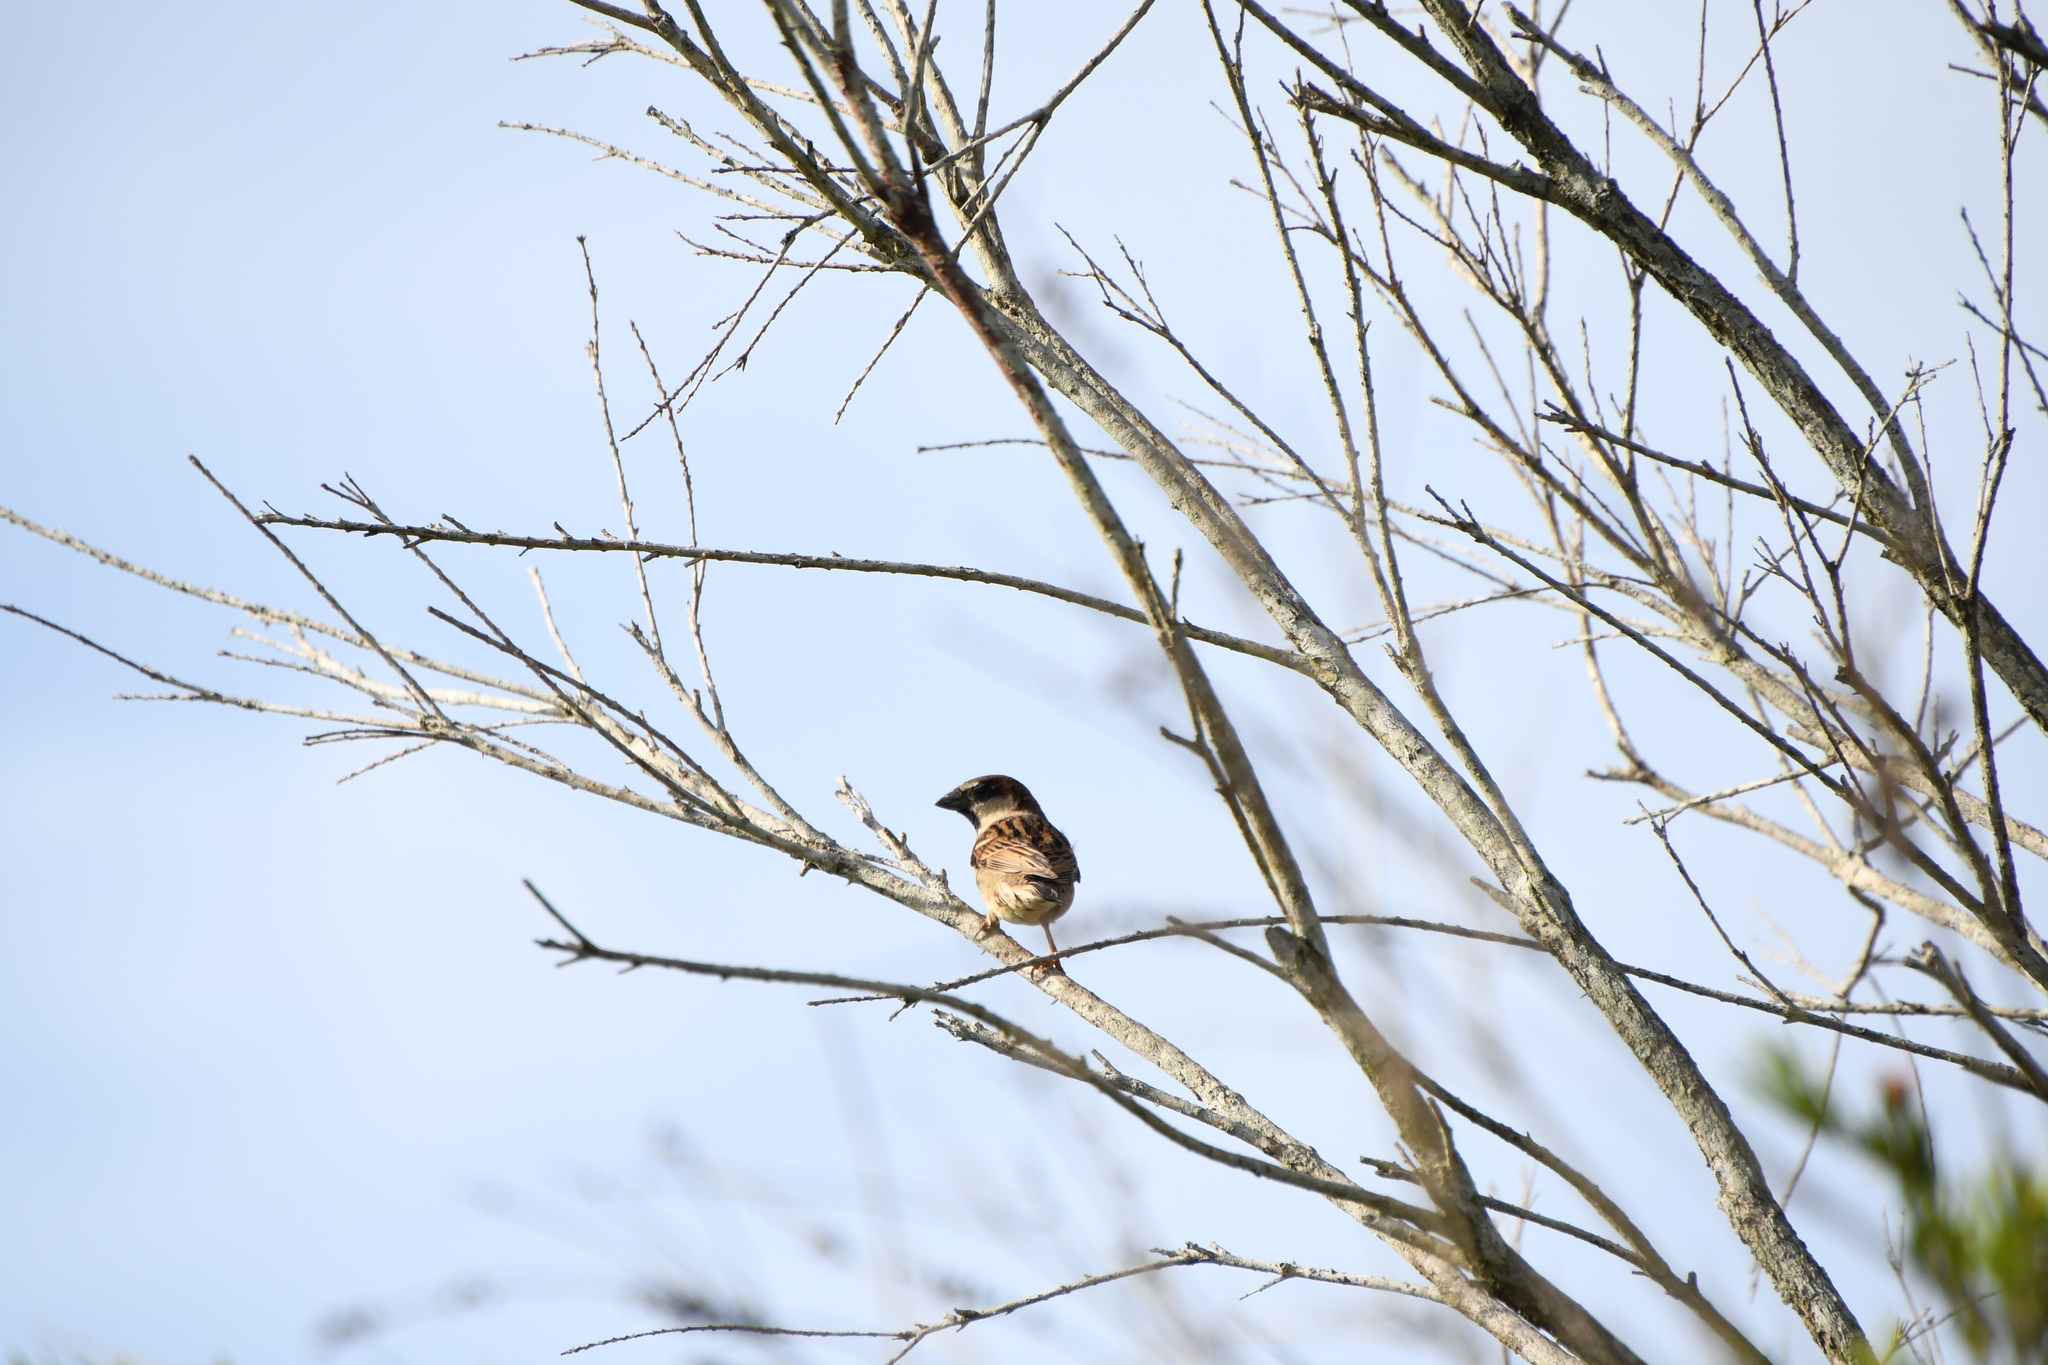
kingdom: Animalia
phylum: Chordata
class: Aves
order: Passeriformes
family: Passeridae
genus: Passer
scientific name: Passer domesticus
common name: House sparrow
